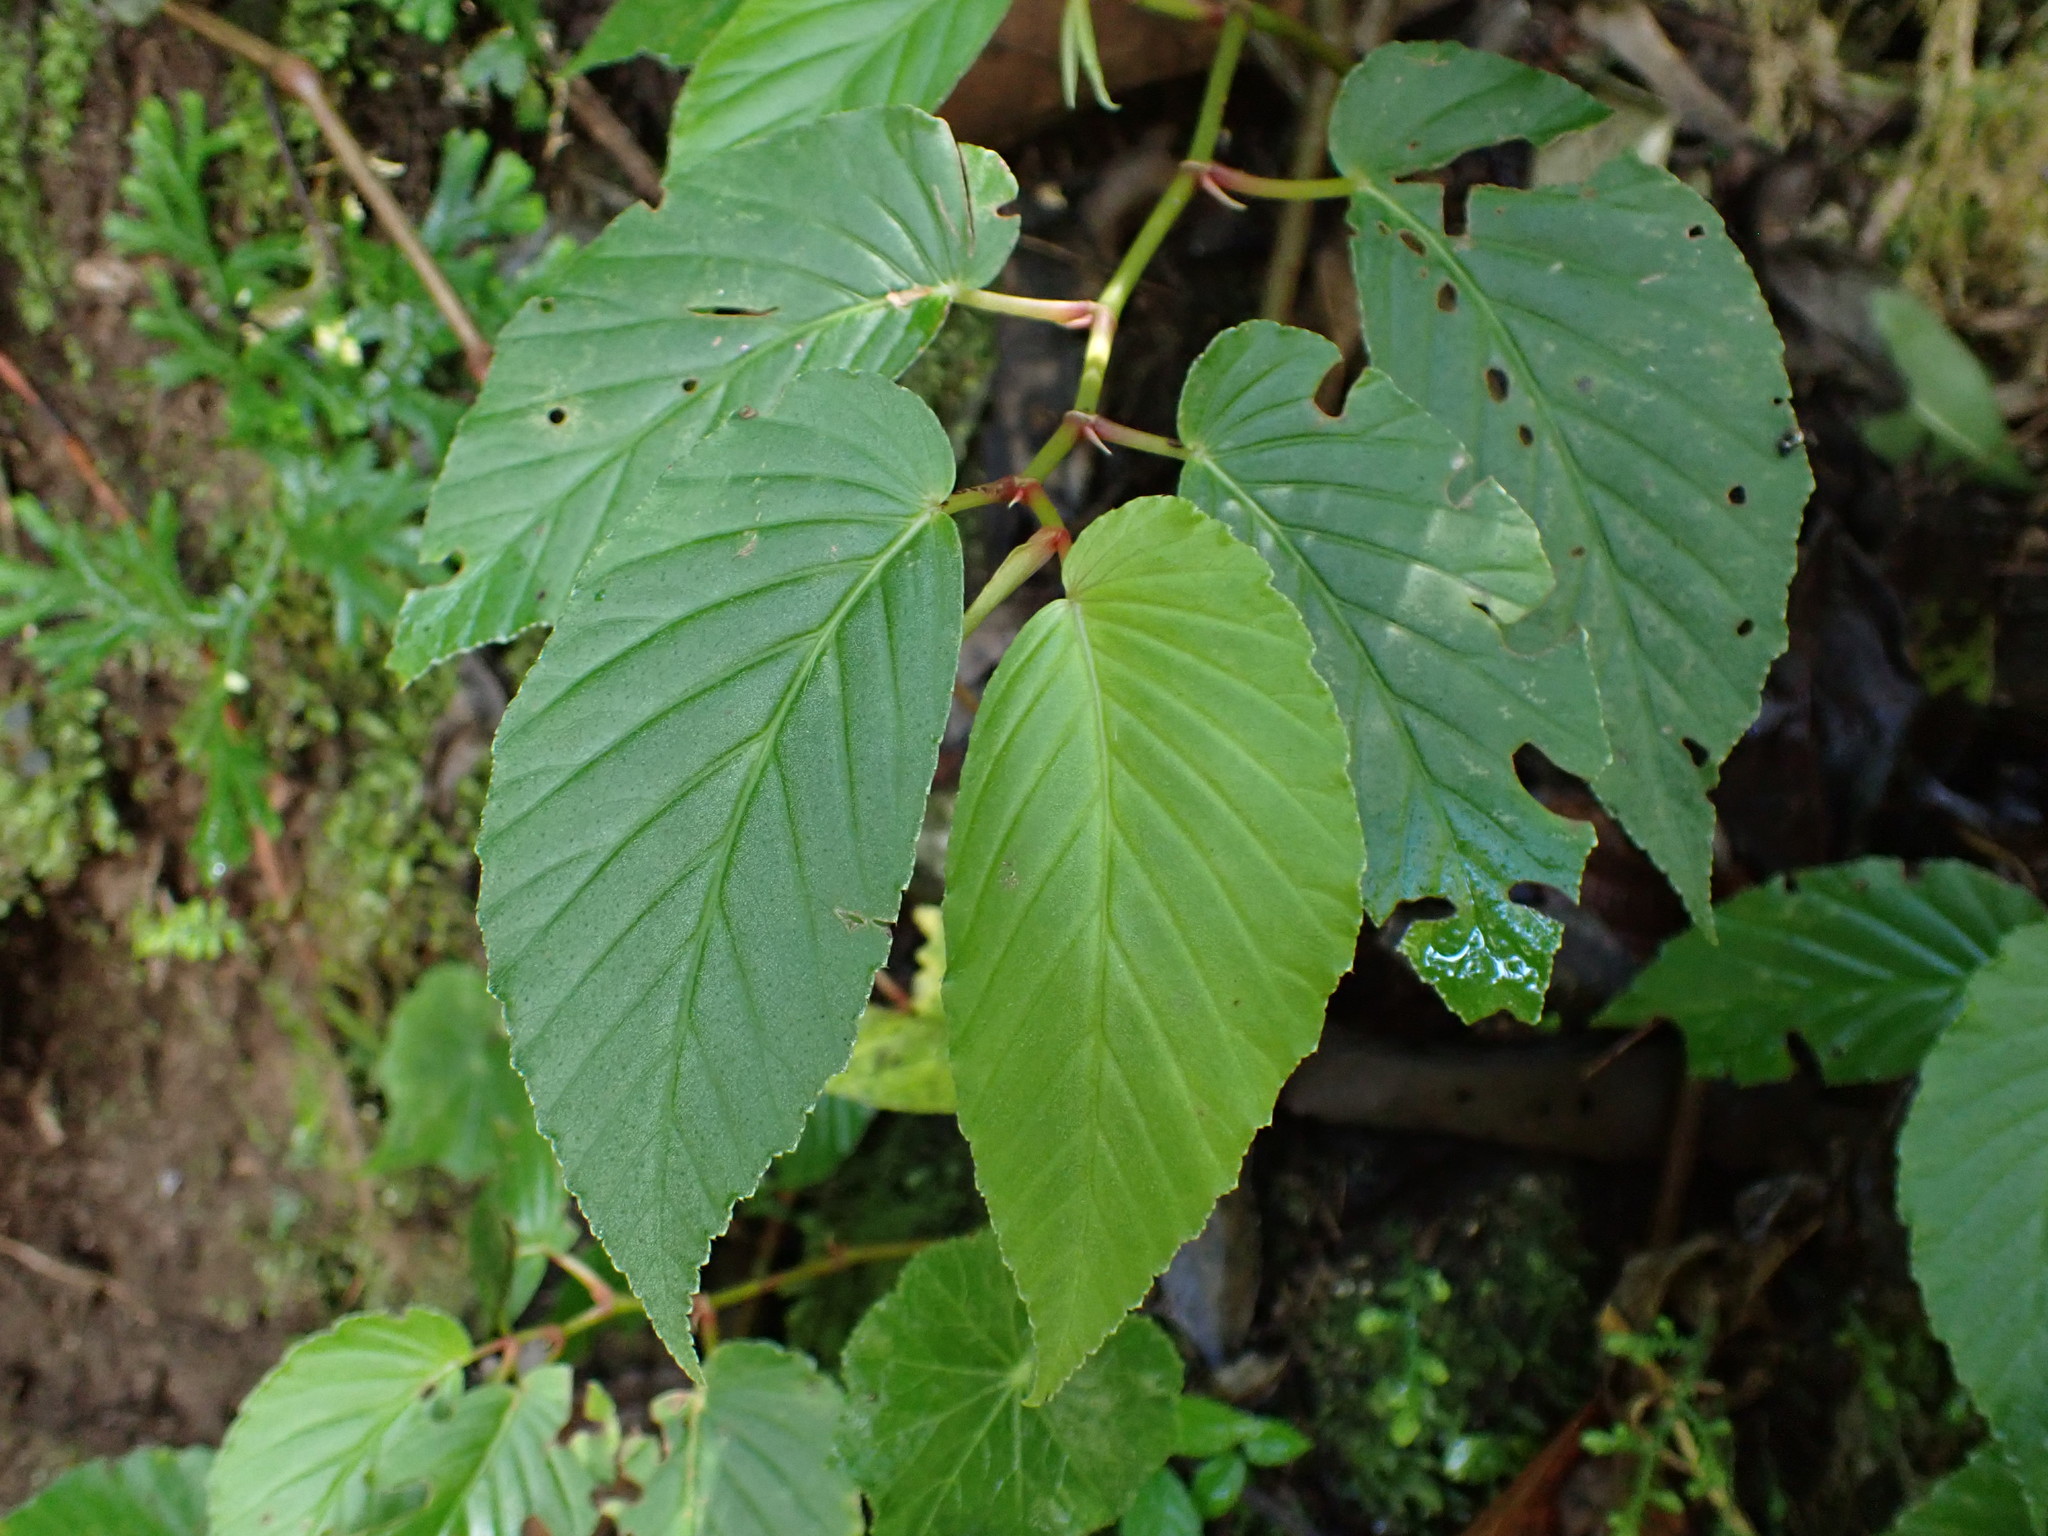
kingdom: Plantae
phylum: Tracheophyta
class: Magnoliopsida
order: Cucurbitales
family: Begoniaceae
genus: Begonia
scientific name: Begonia peruviana
